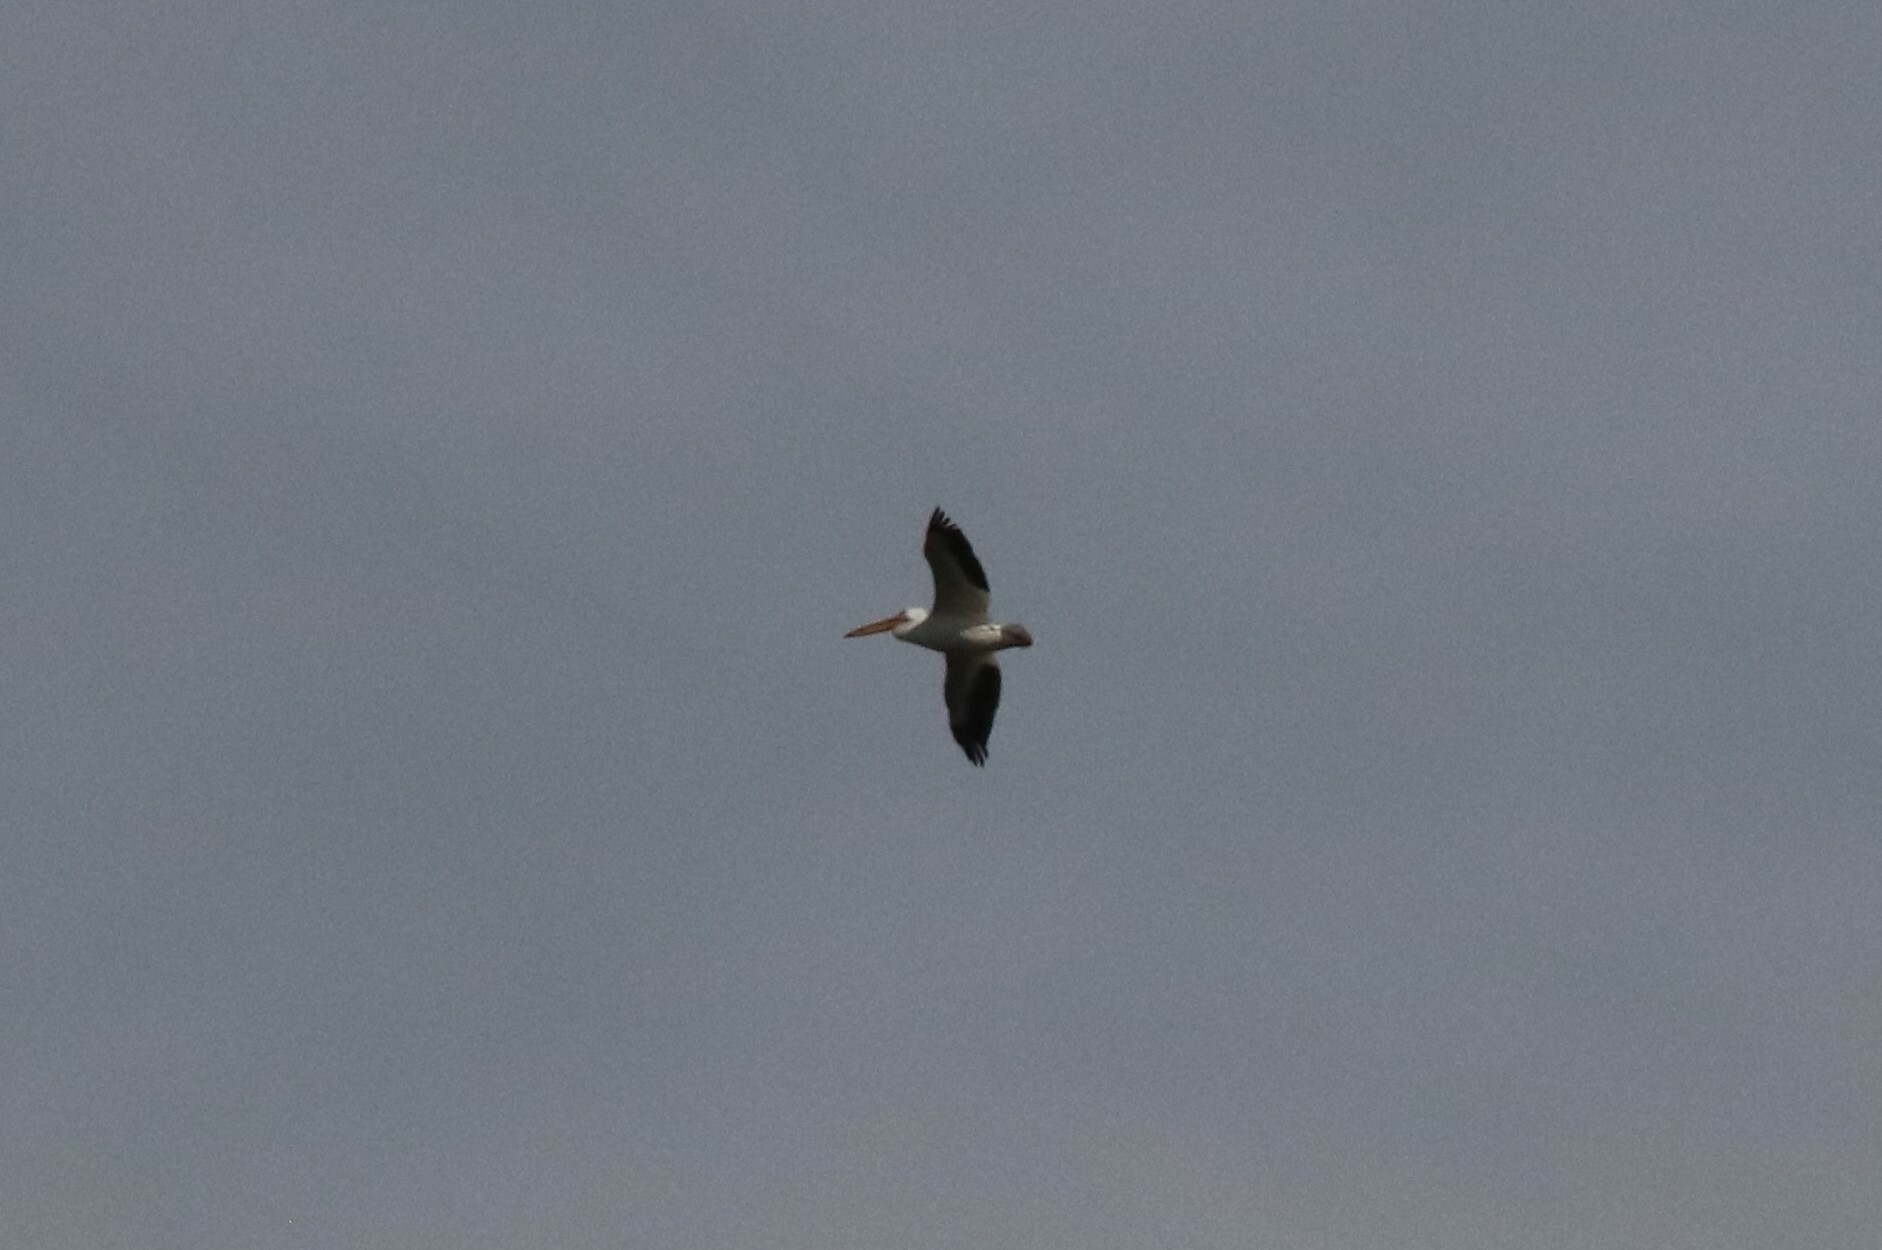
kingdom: Animalia
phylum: Chordata
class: Aves
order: Pelecaniformes
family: Pelecanidae
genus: Pelecanus
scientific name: Pelecanus erythrorhynchos
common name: American white pelican
